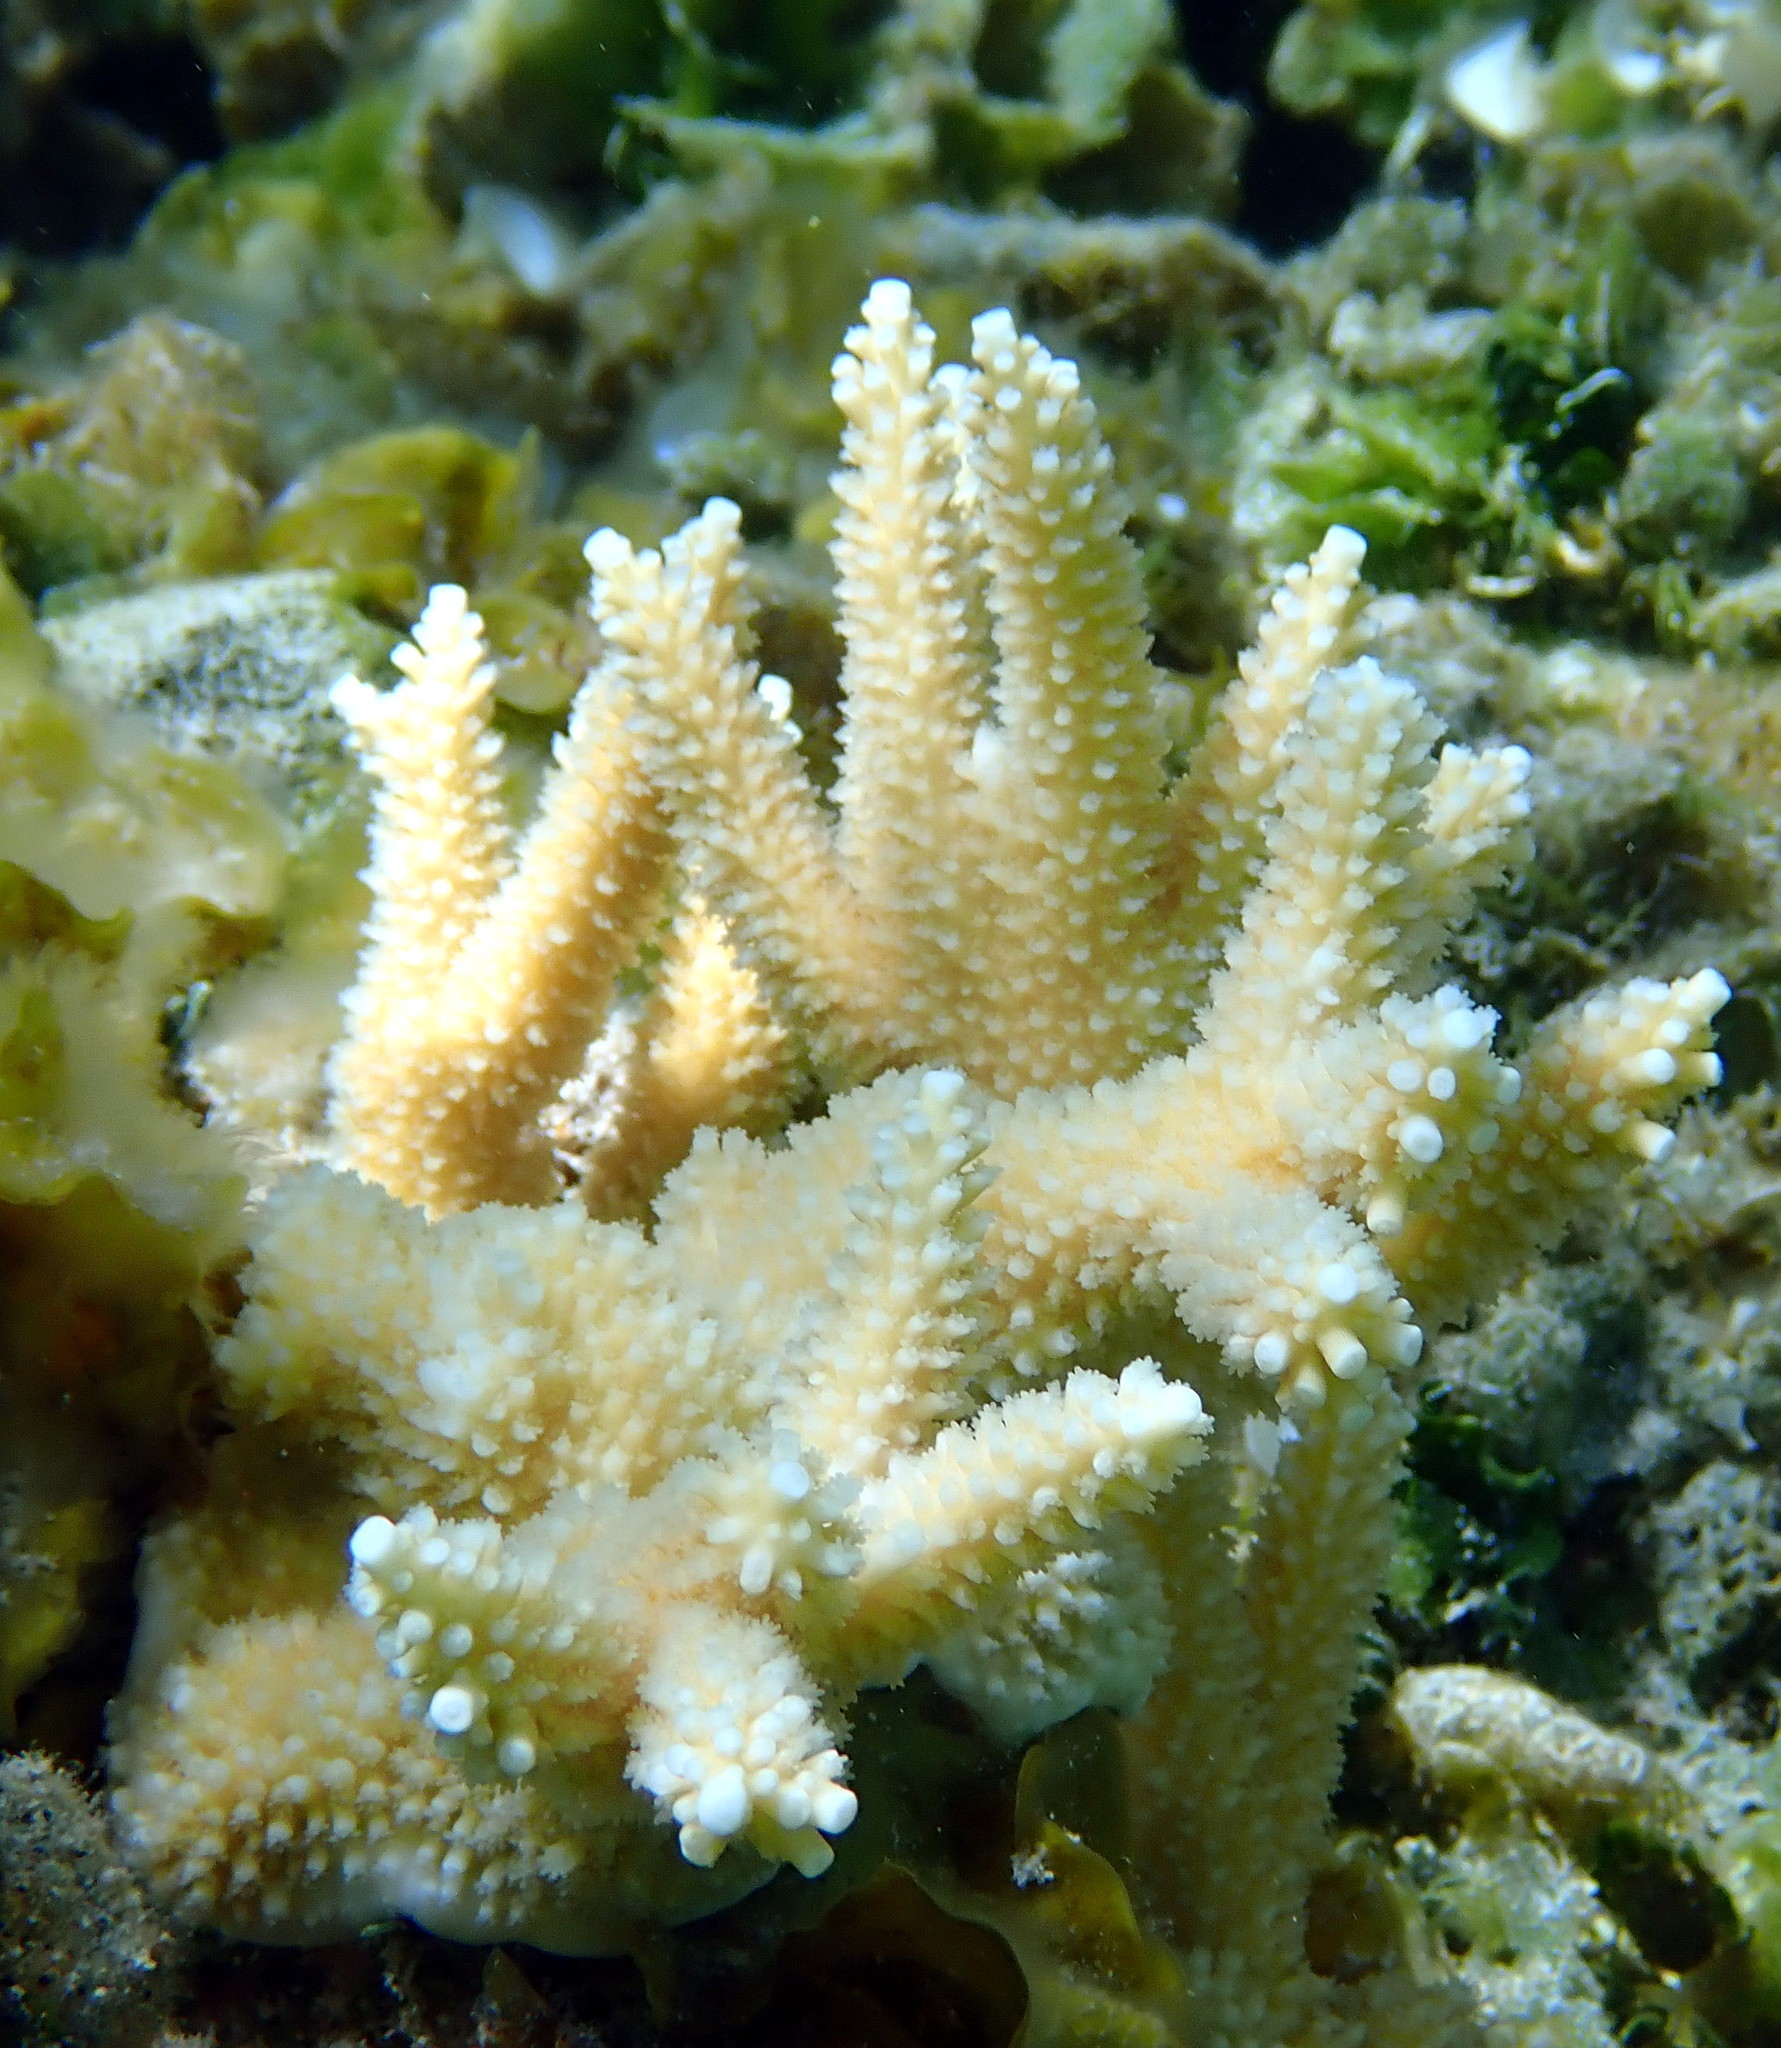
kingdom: Animalia
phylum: Cnidaria
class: Anthozoa
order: Scleractinia
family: Acroporidae
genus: Acropora
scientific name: Acropora cervicornis
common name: Staghorn coral
